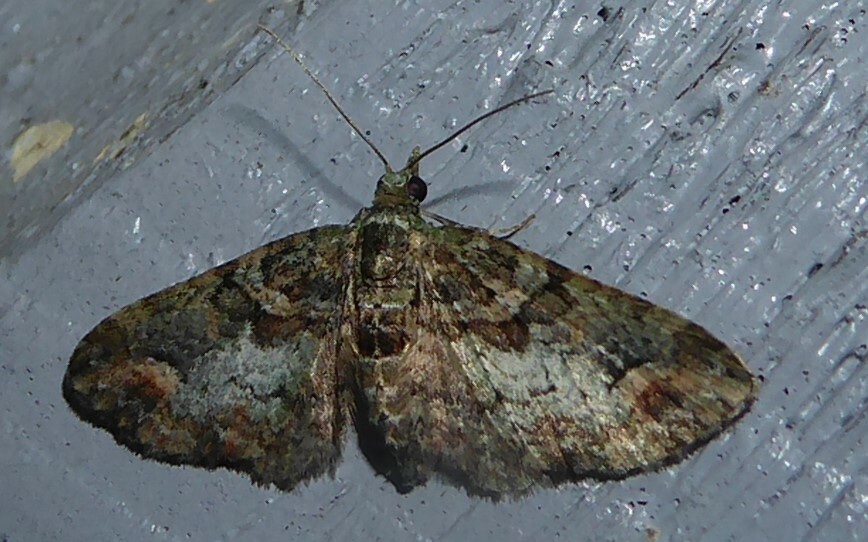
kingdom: Animalia
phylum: Arthropoda
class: Insecta
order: Lepidoptera
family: Geometridae
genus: Idaea
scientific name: Idaea mutanda
